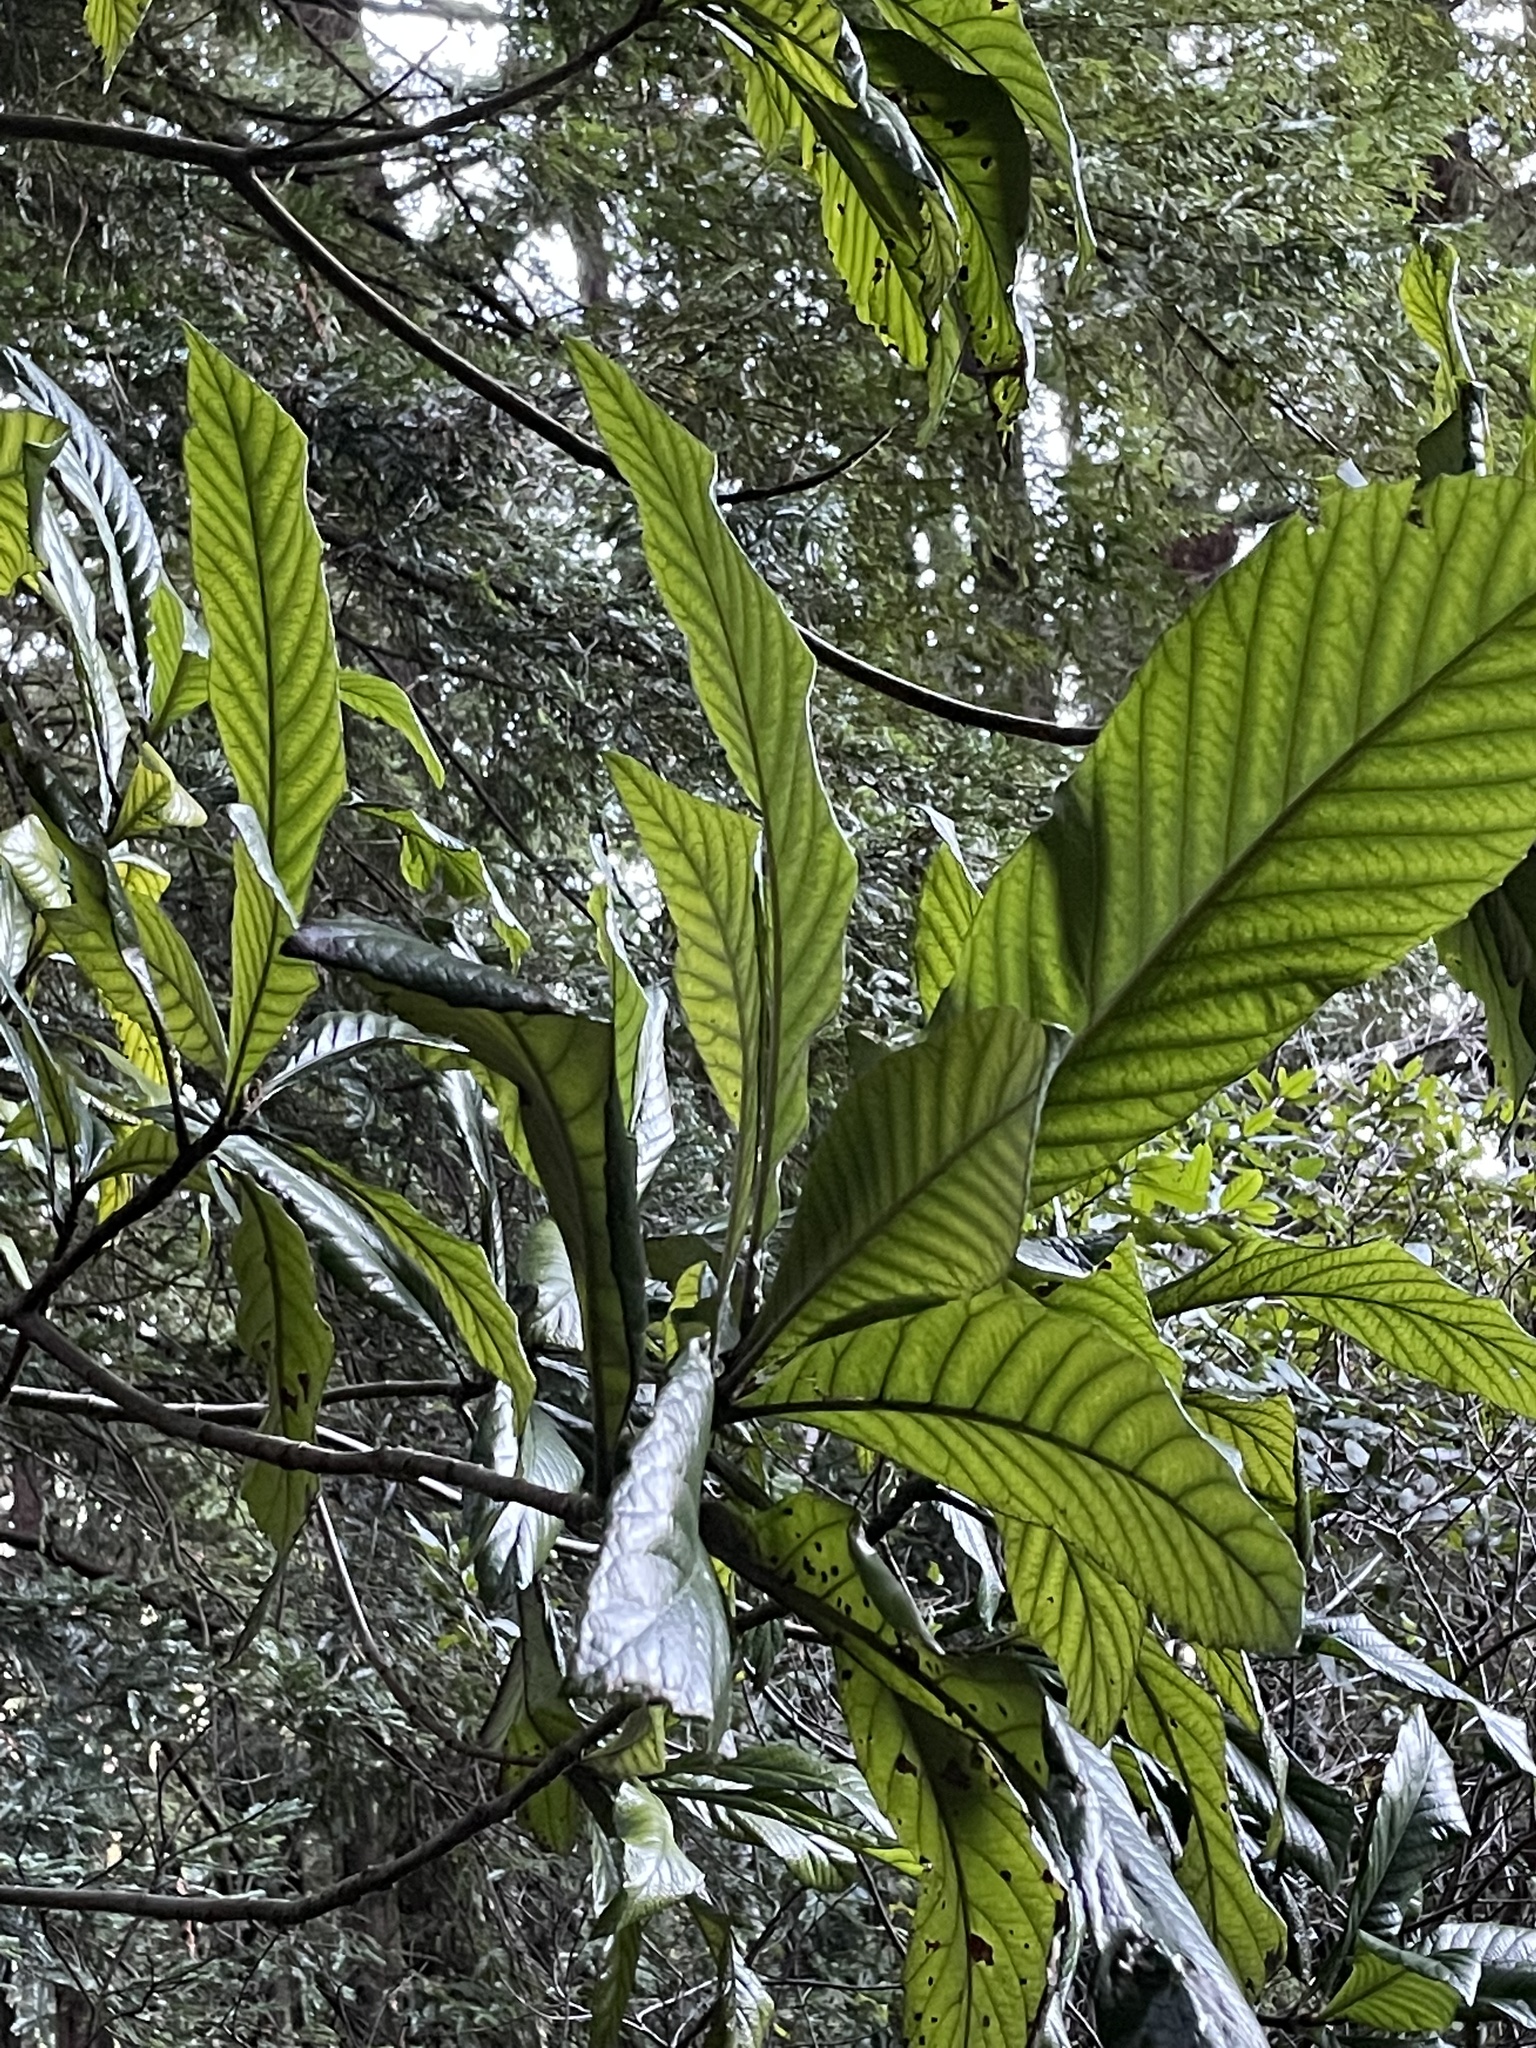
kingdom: Plantae
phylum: Tracheophyta
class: Magnoliopsida
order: Rosales
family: Rosaceae
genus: Rhaphiolepis
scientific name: Rhaphiolepis bibas
